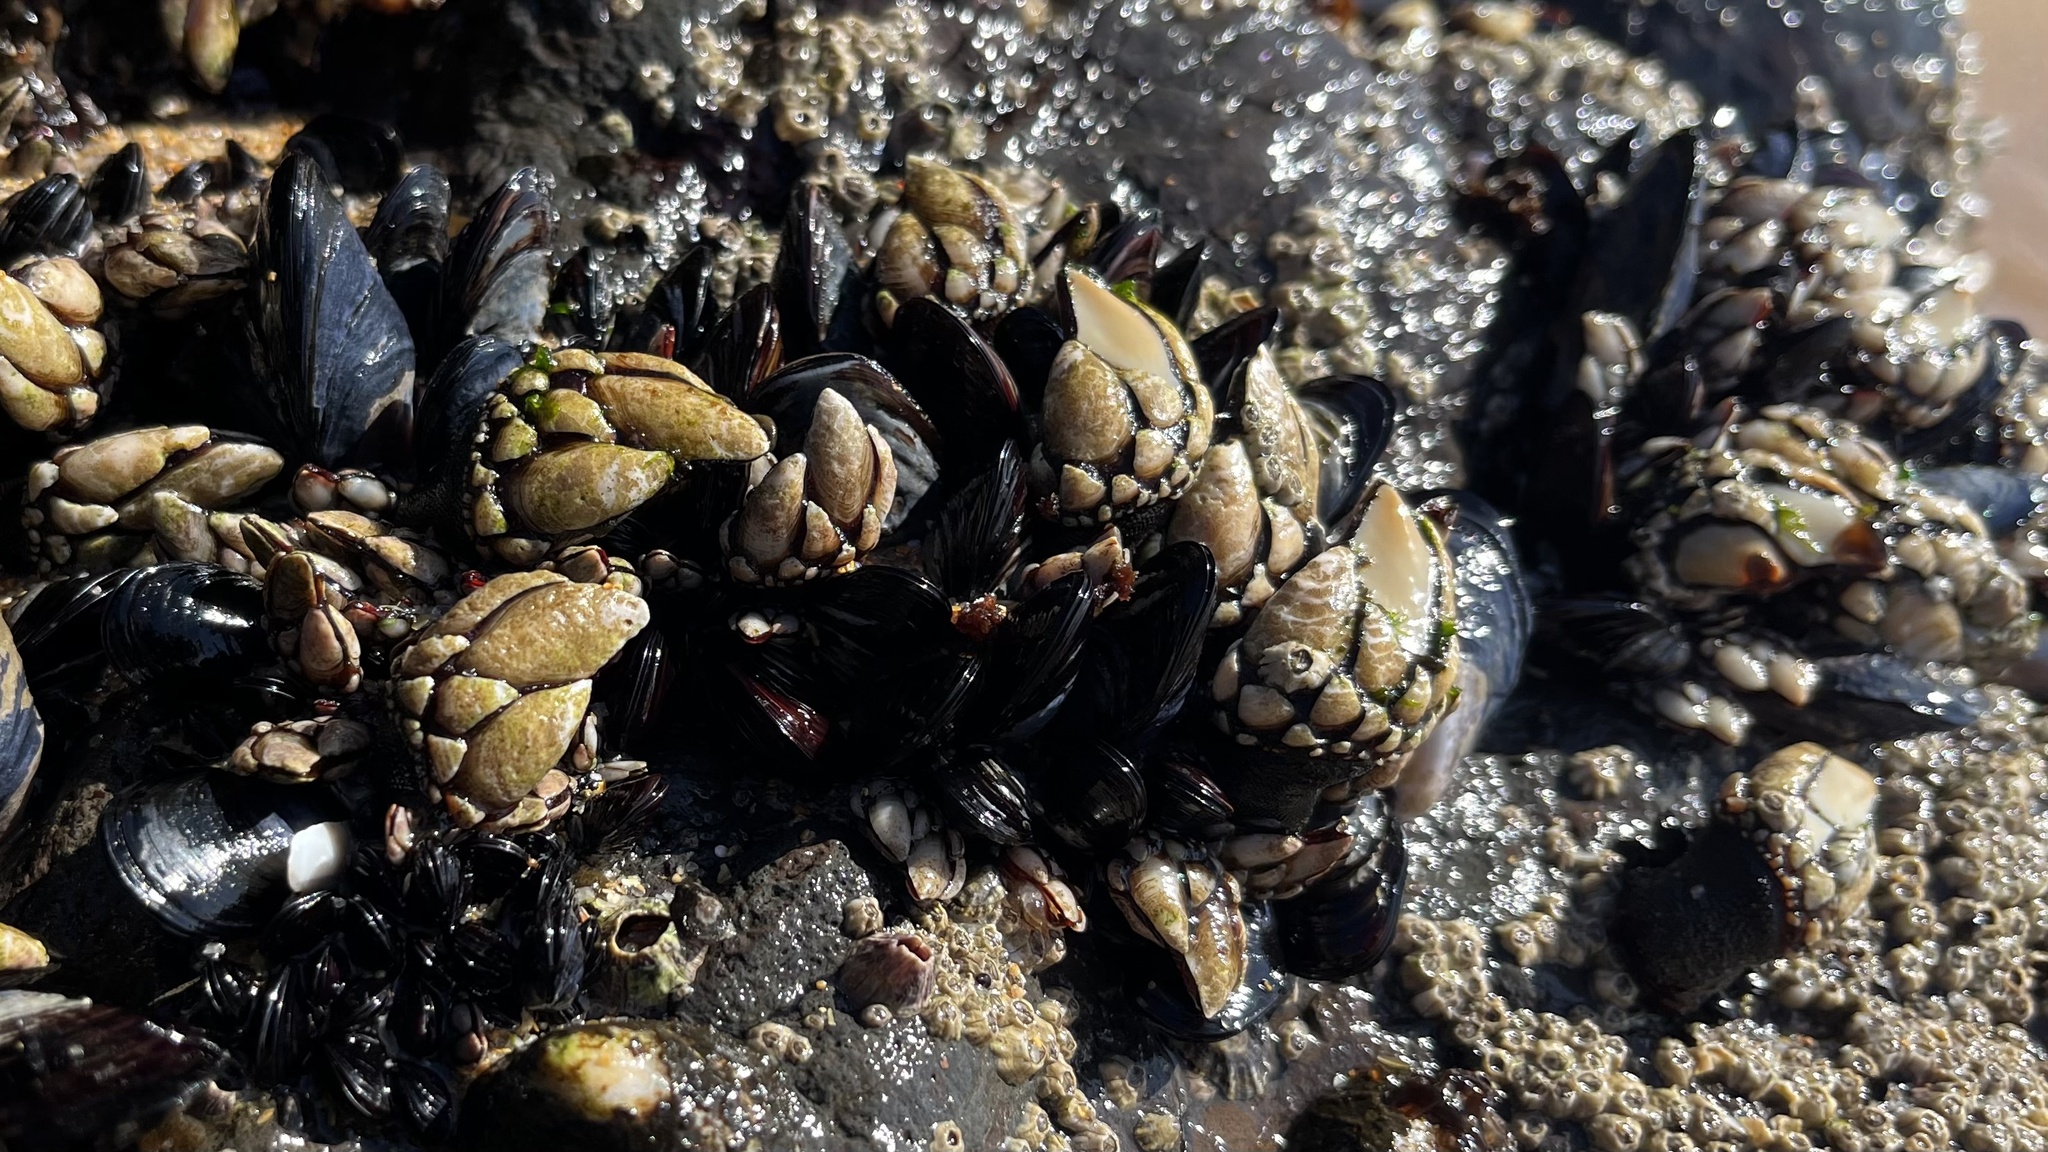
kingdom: Animalia
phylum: Arthropoda
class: Maxillopoda
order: Pedunculata
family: Pollicipedidae
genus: Pollicipes
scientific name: Pollicipes pollicipes
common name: Gooseneck barnacle
